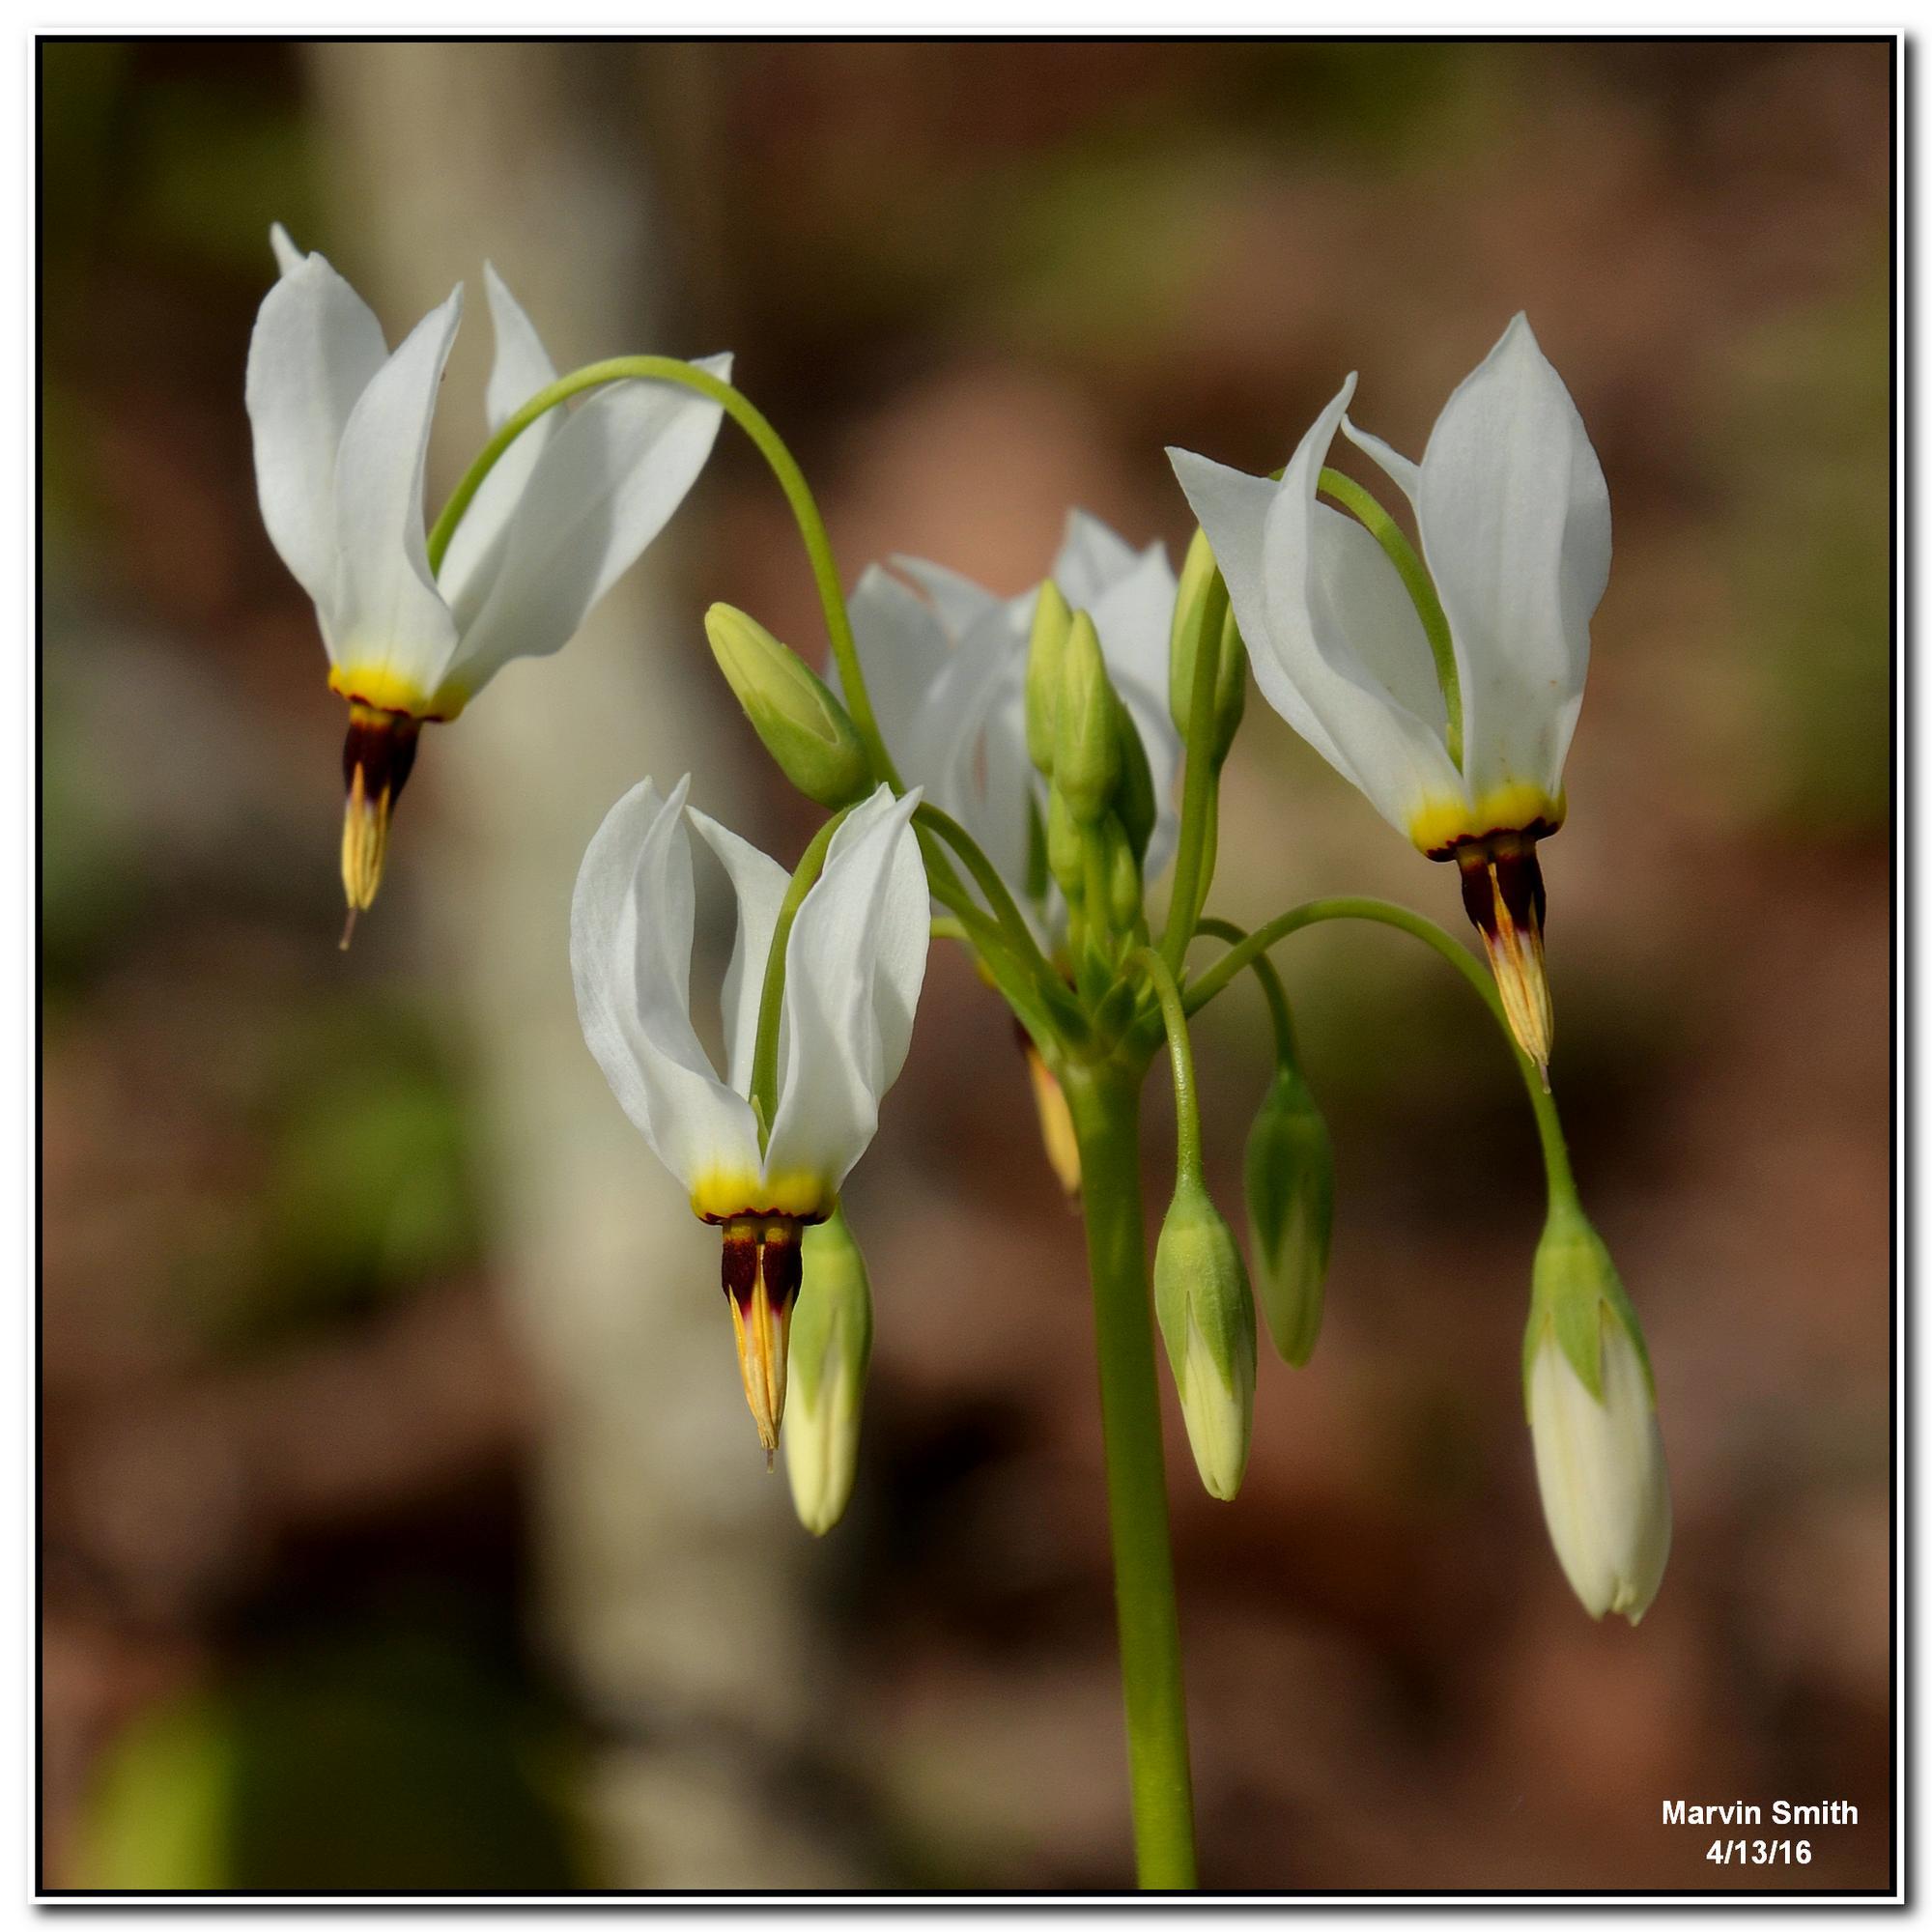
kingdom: Plantae
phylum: Tracheophyta
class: Magnoliopsida
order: Ericales
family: Primulaceae
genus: Dodecatheon
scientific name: Dodecatheon meadia
